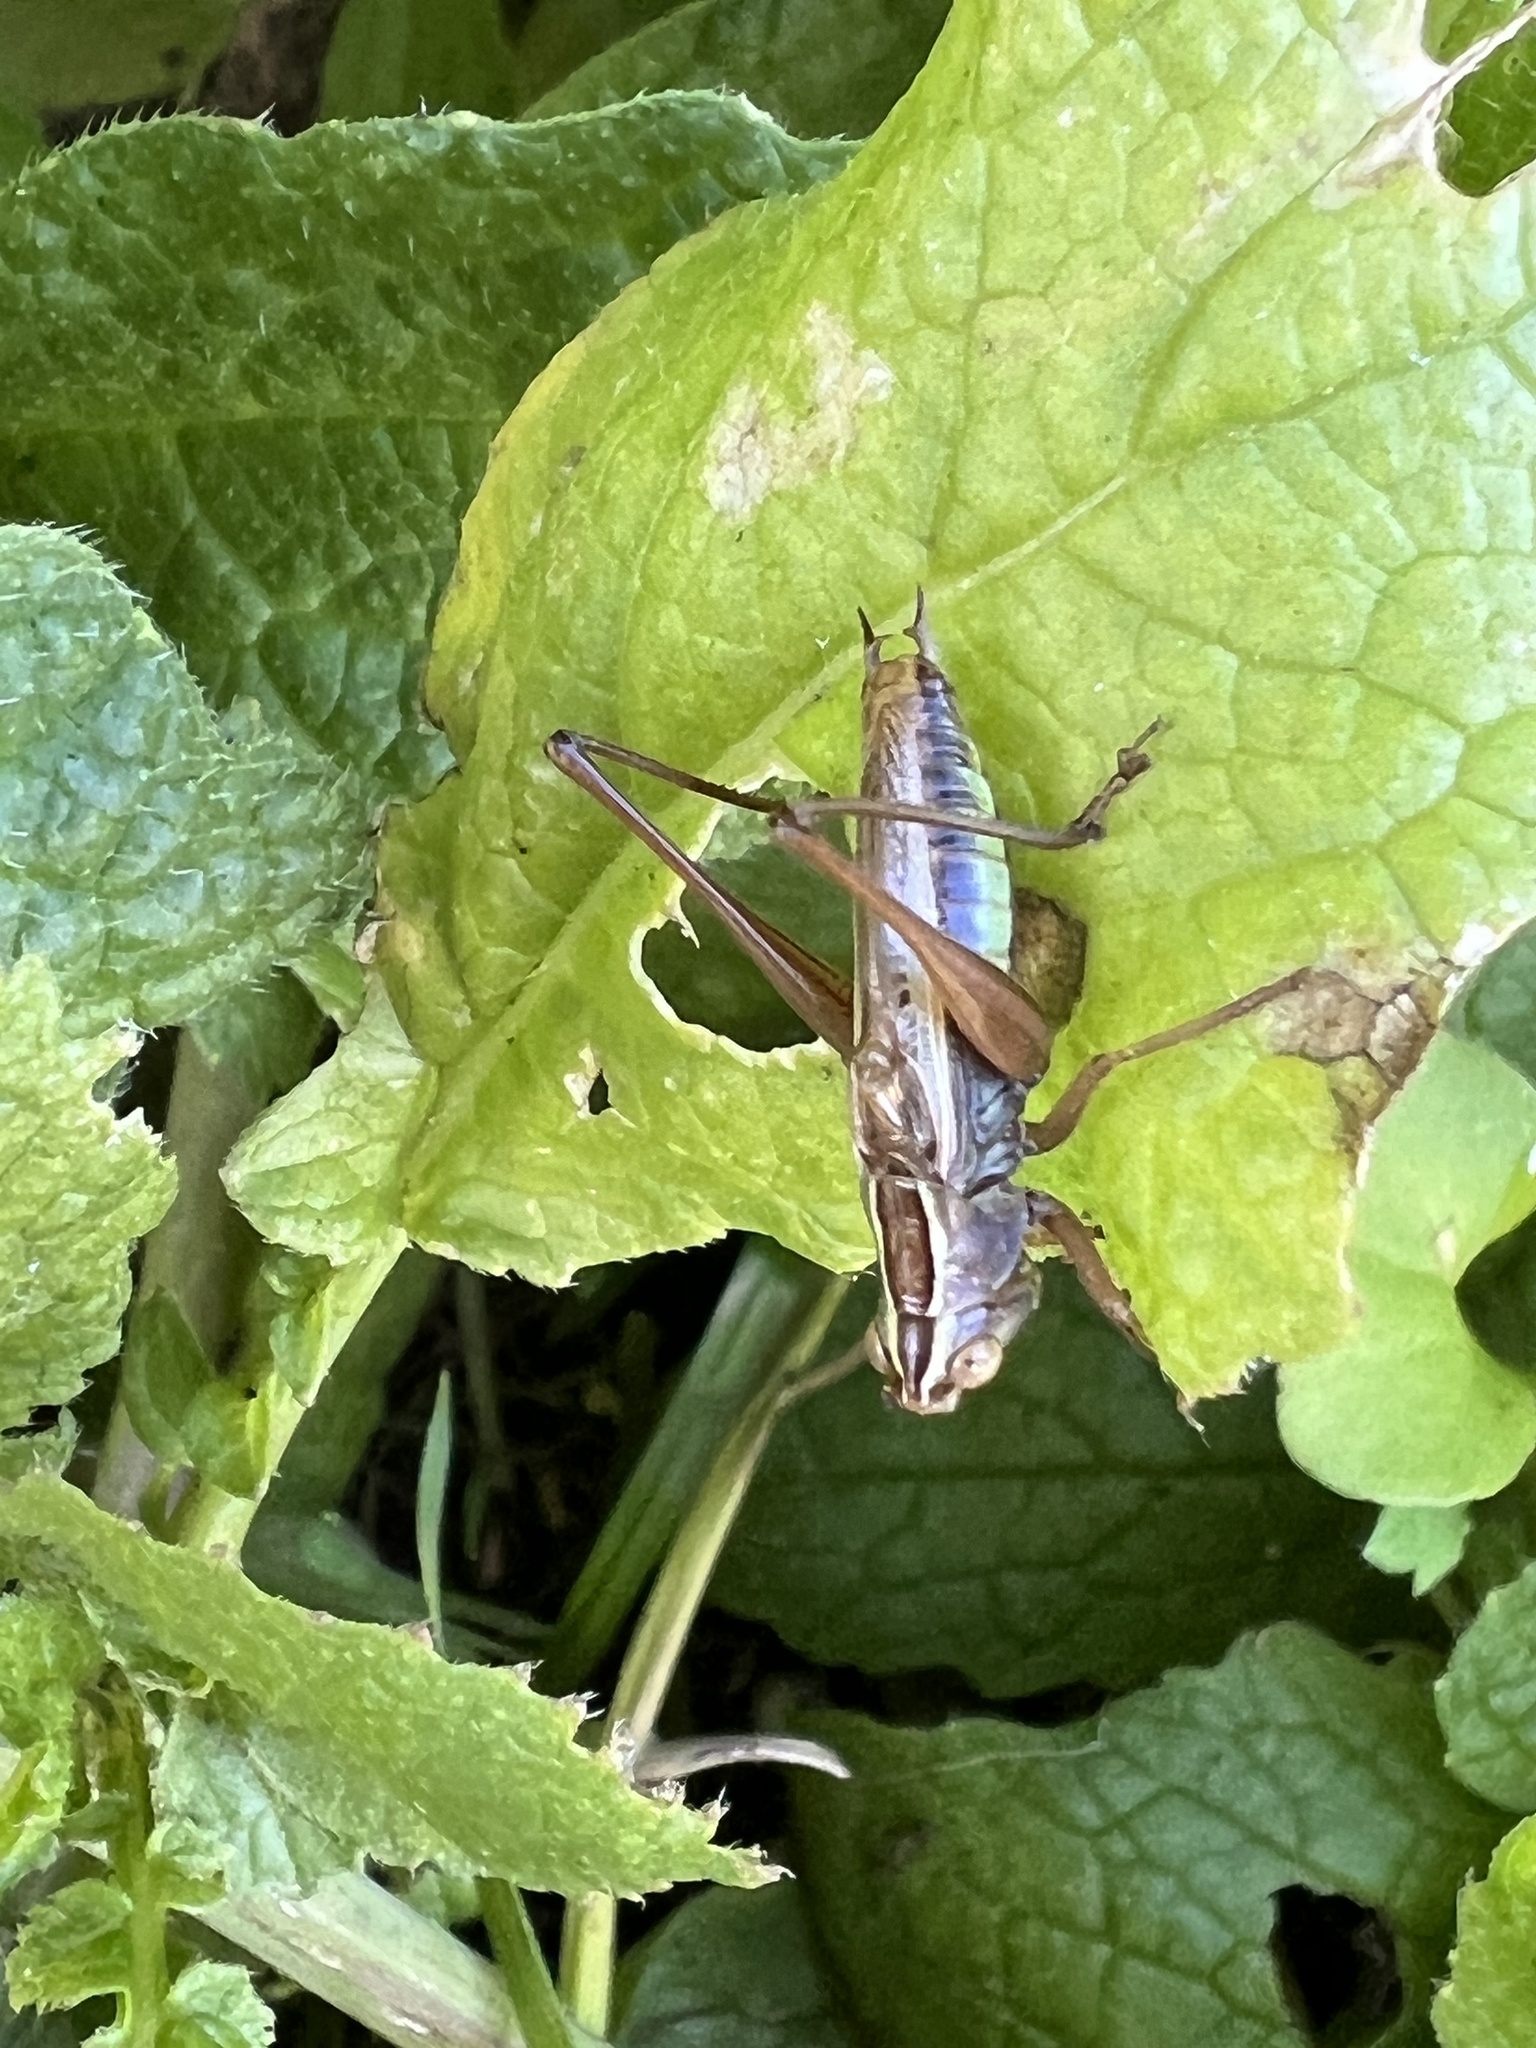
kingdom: Animalia
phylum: Arthropoda
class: Insecta
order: Orthoptera
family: Tettigoniidae
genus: Conocephalus
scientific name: Conocephalus albescens
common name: Whitish meadow katydid
